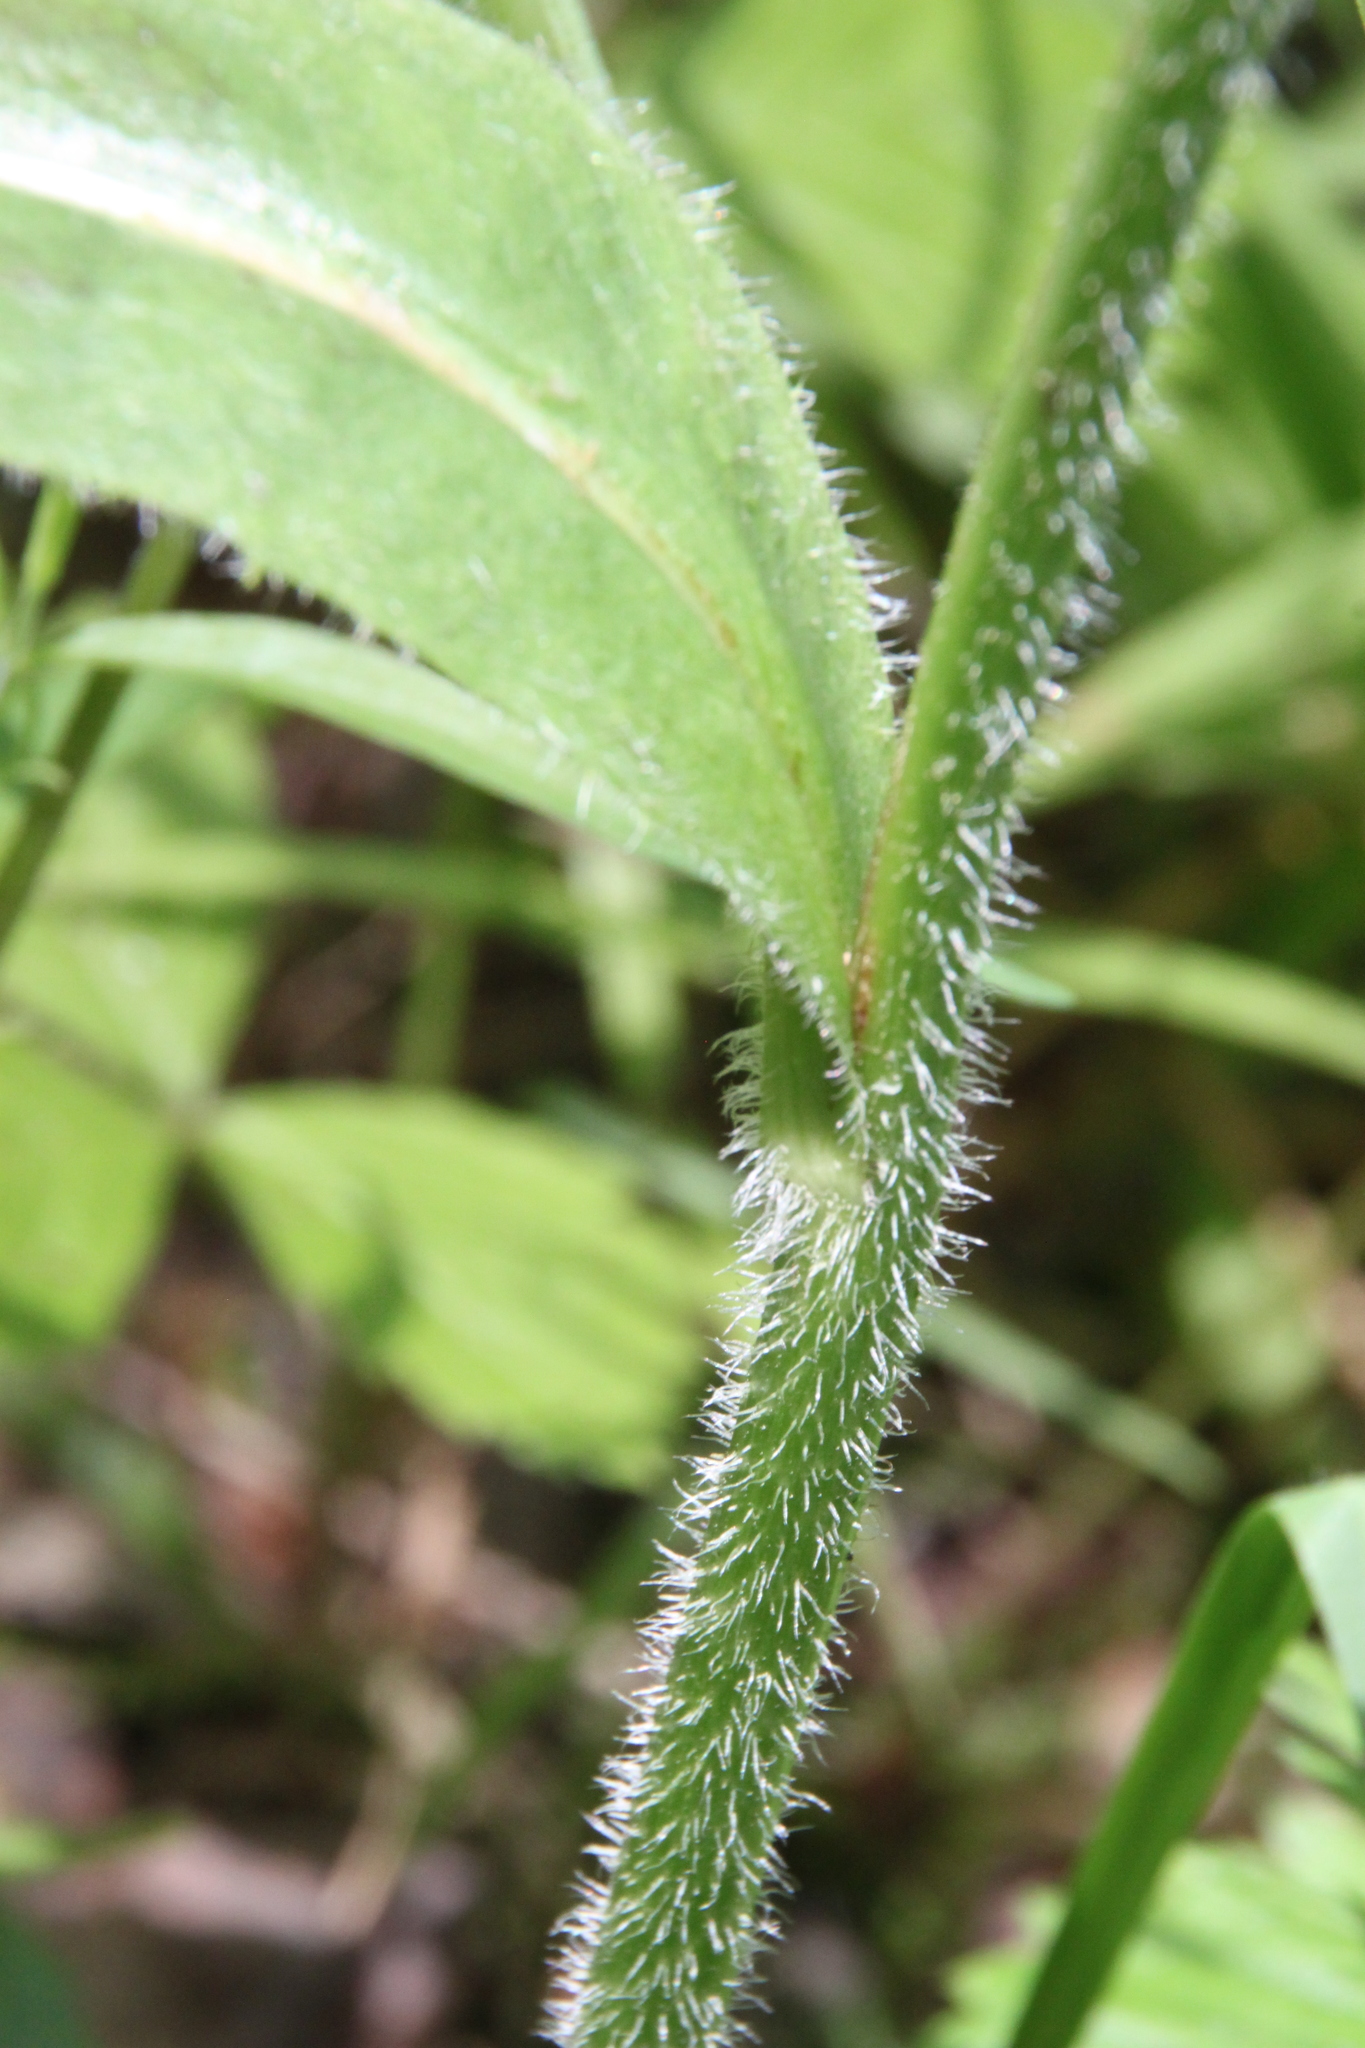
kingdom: Plantae
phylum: Tracheophyta
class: Magnoliopsida
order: Asterales
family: Asteraceae
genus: Trommsdorffia
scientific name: Trommsdorffia maculata
